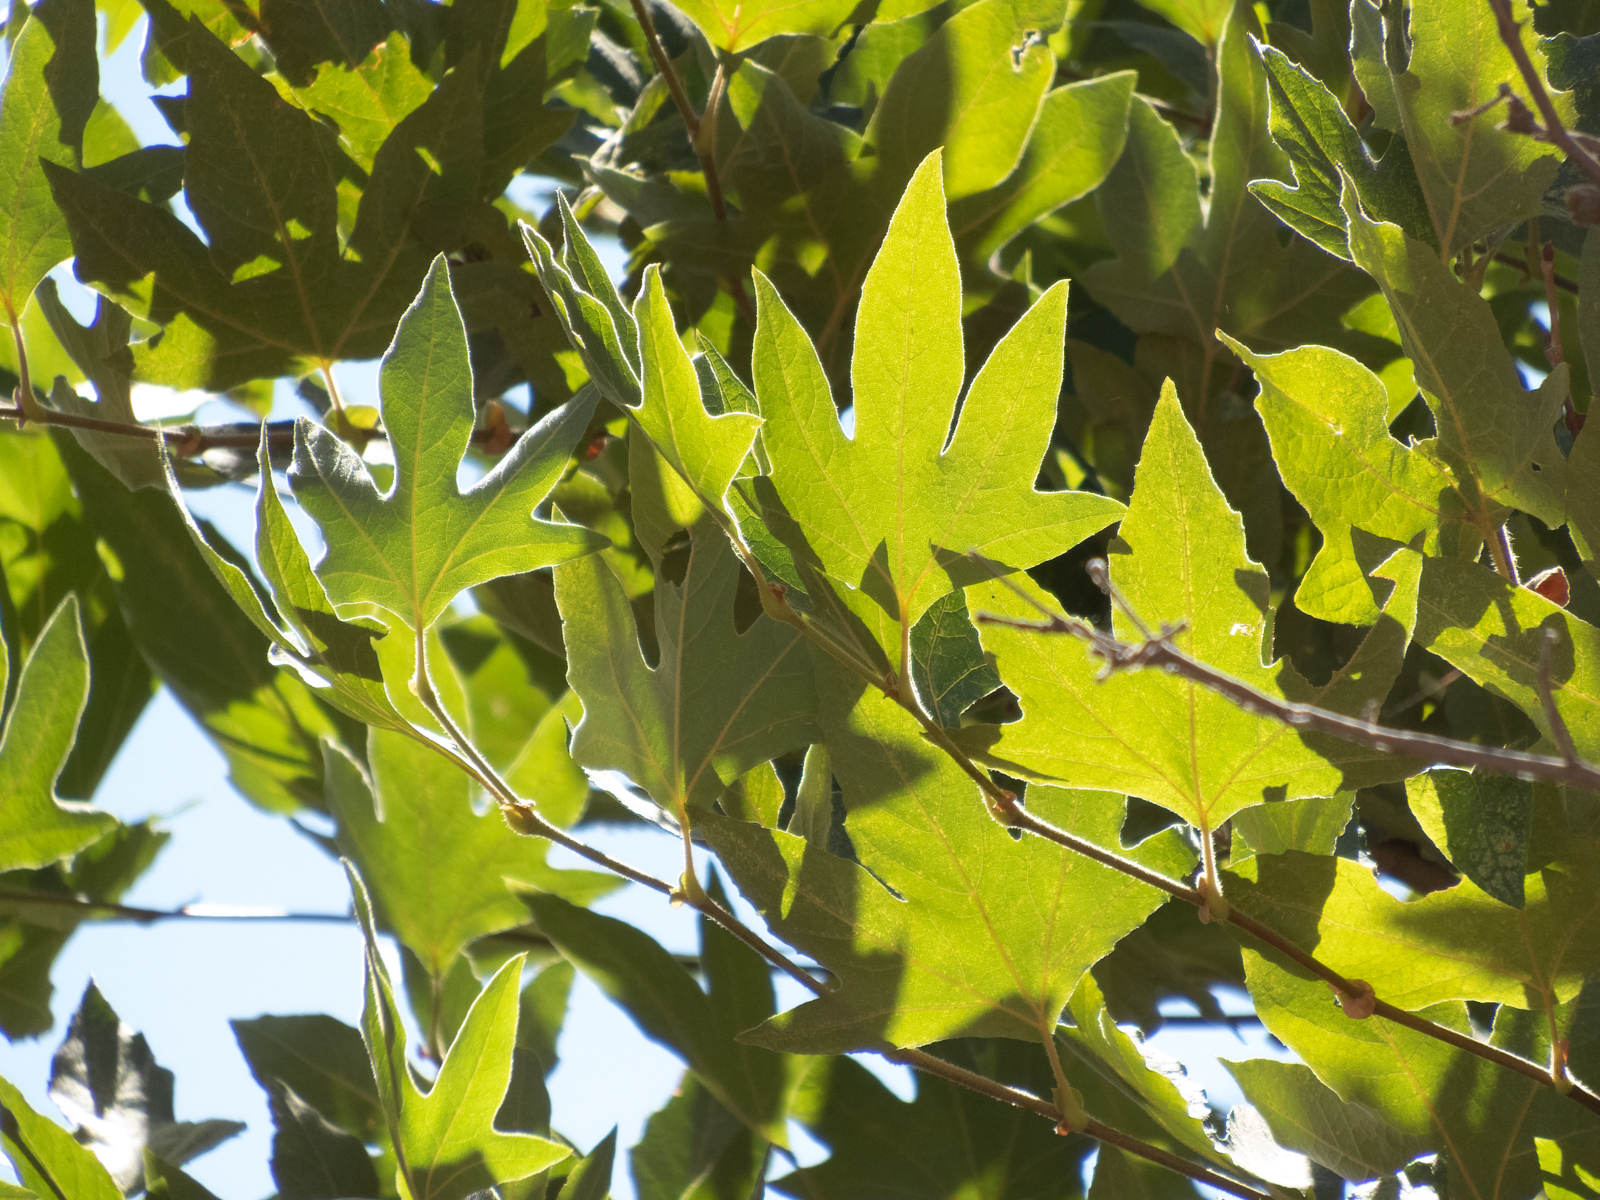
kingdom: Plantae
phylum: Tracheophyta
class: Magnoliopsida
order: Proteales
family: Platanaceae
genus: Platanus
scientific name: Platanus racemosa
